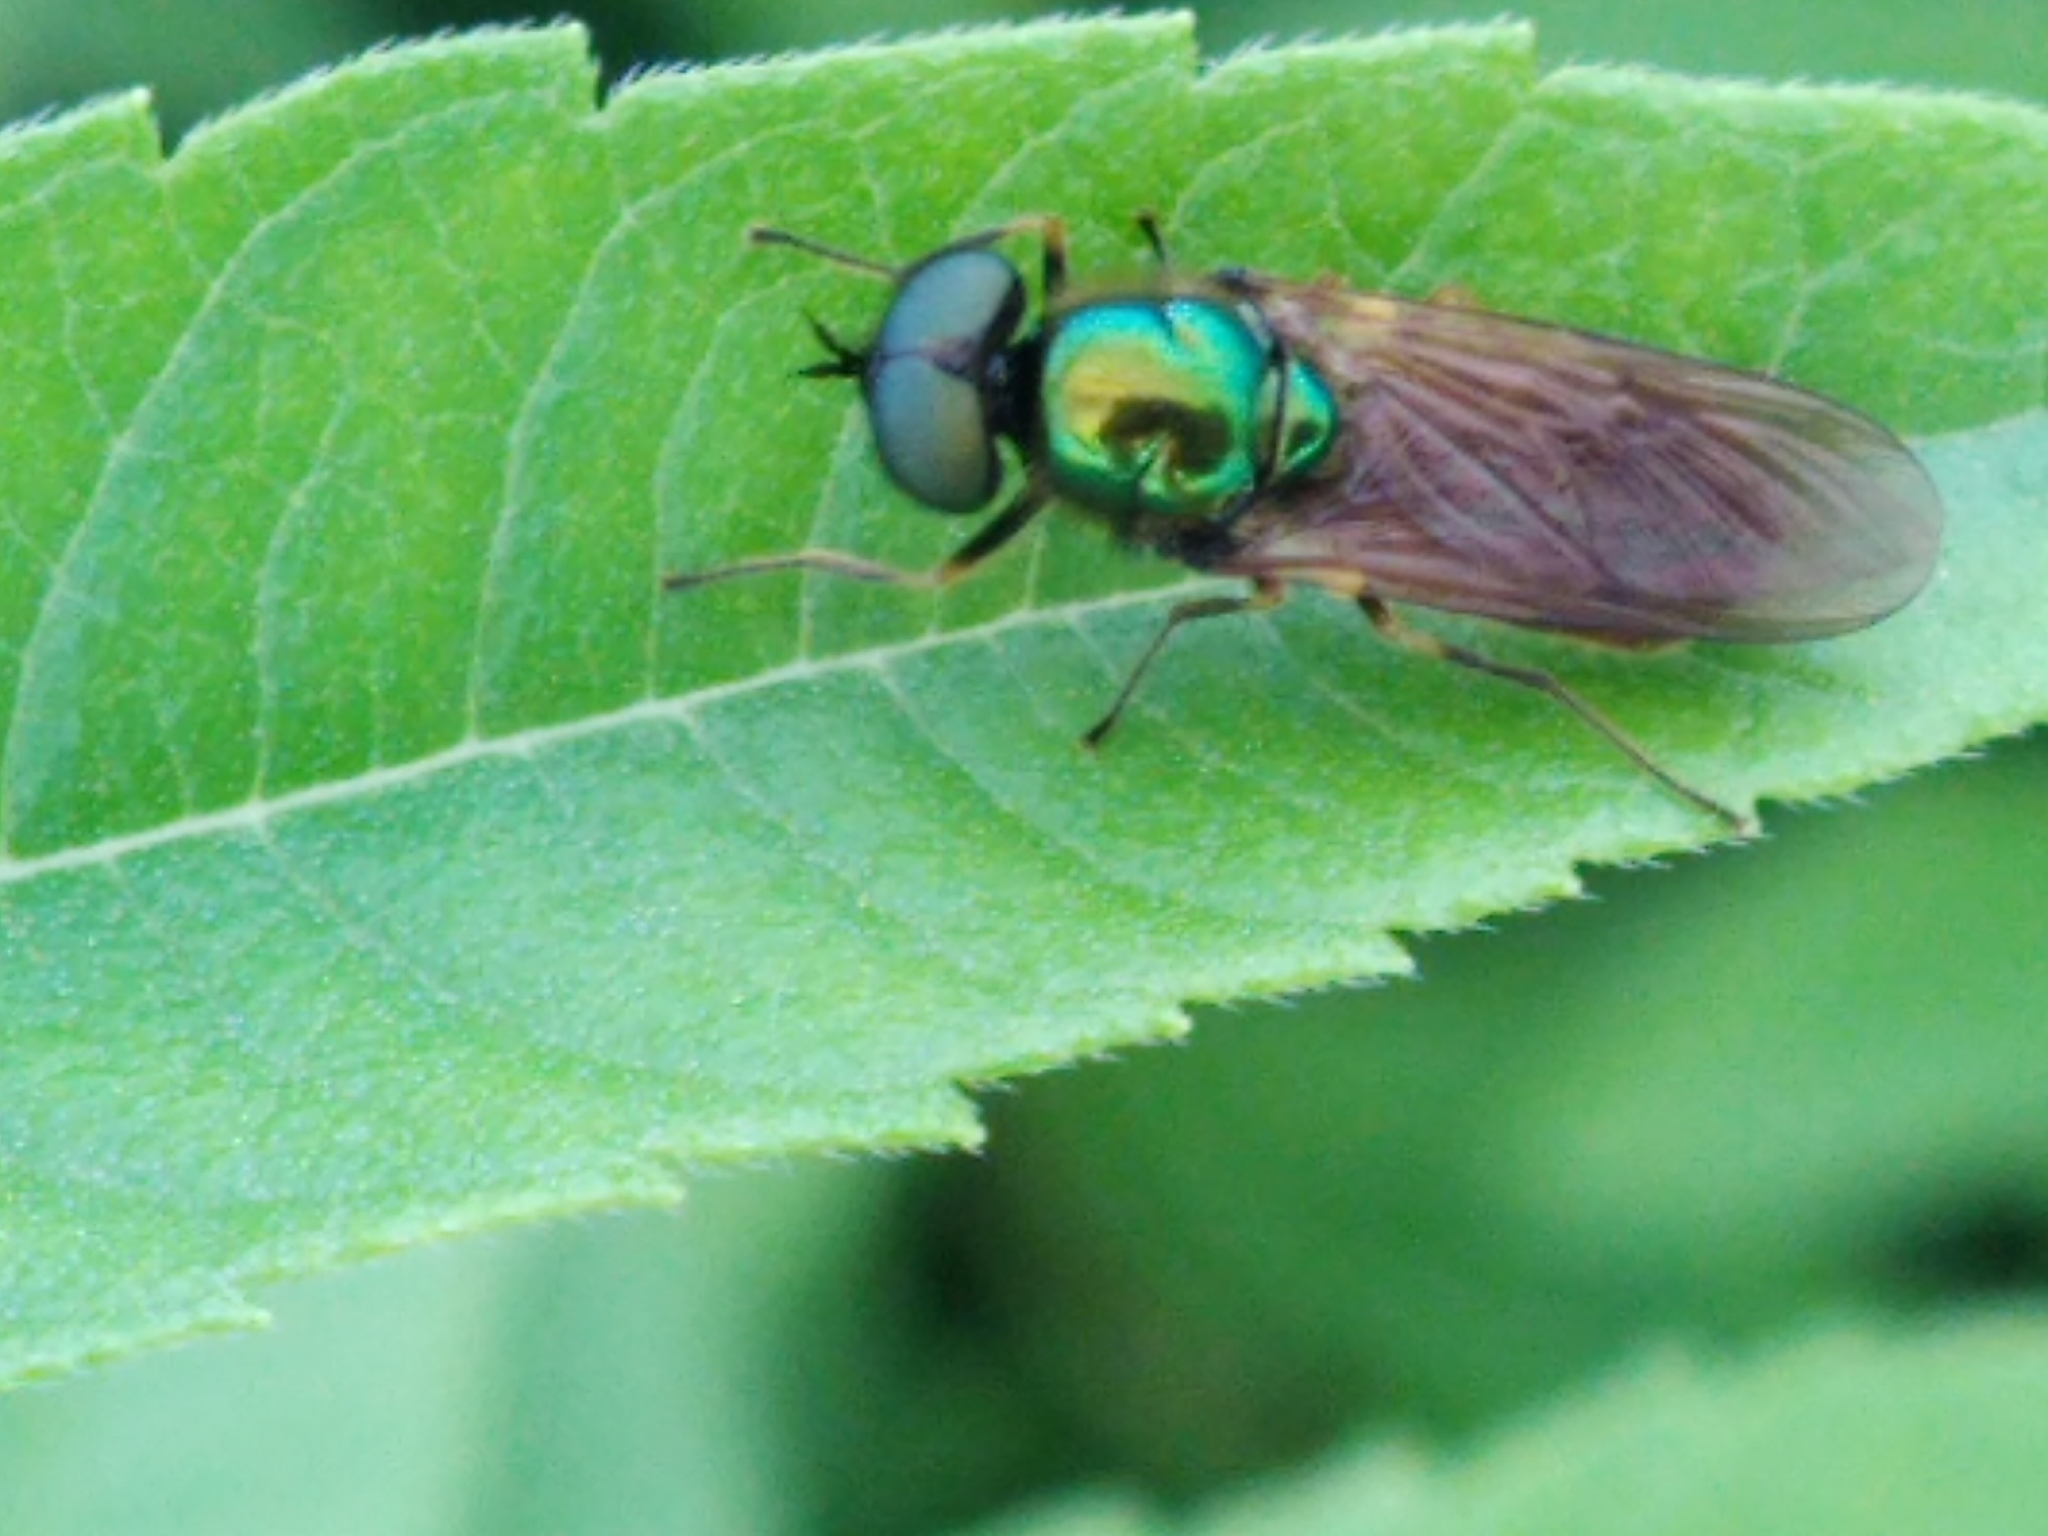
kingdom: Animalia
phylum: Arthropoda
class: Insecta
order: Diptera
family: Stratiomyidae
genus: Chloromyia
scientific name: Chloromyia formosa
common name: Soldier fly
